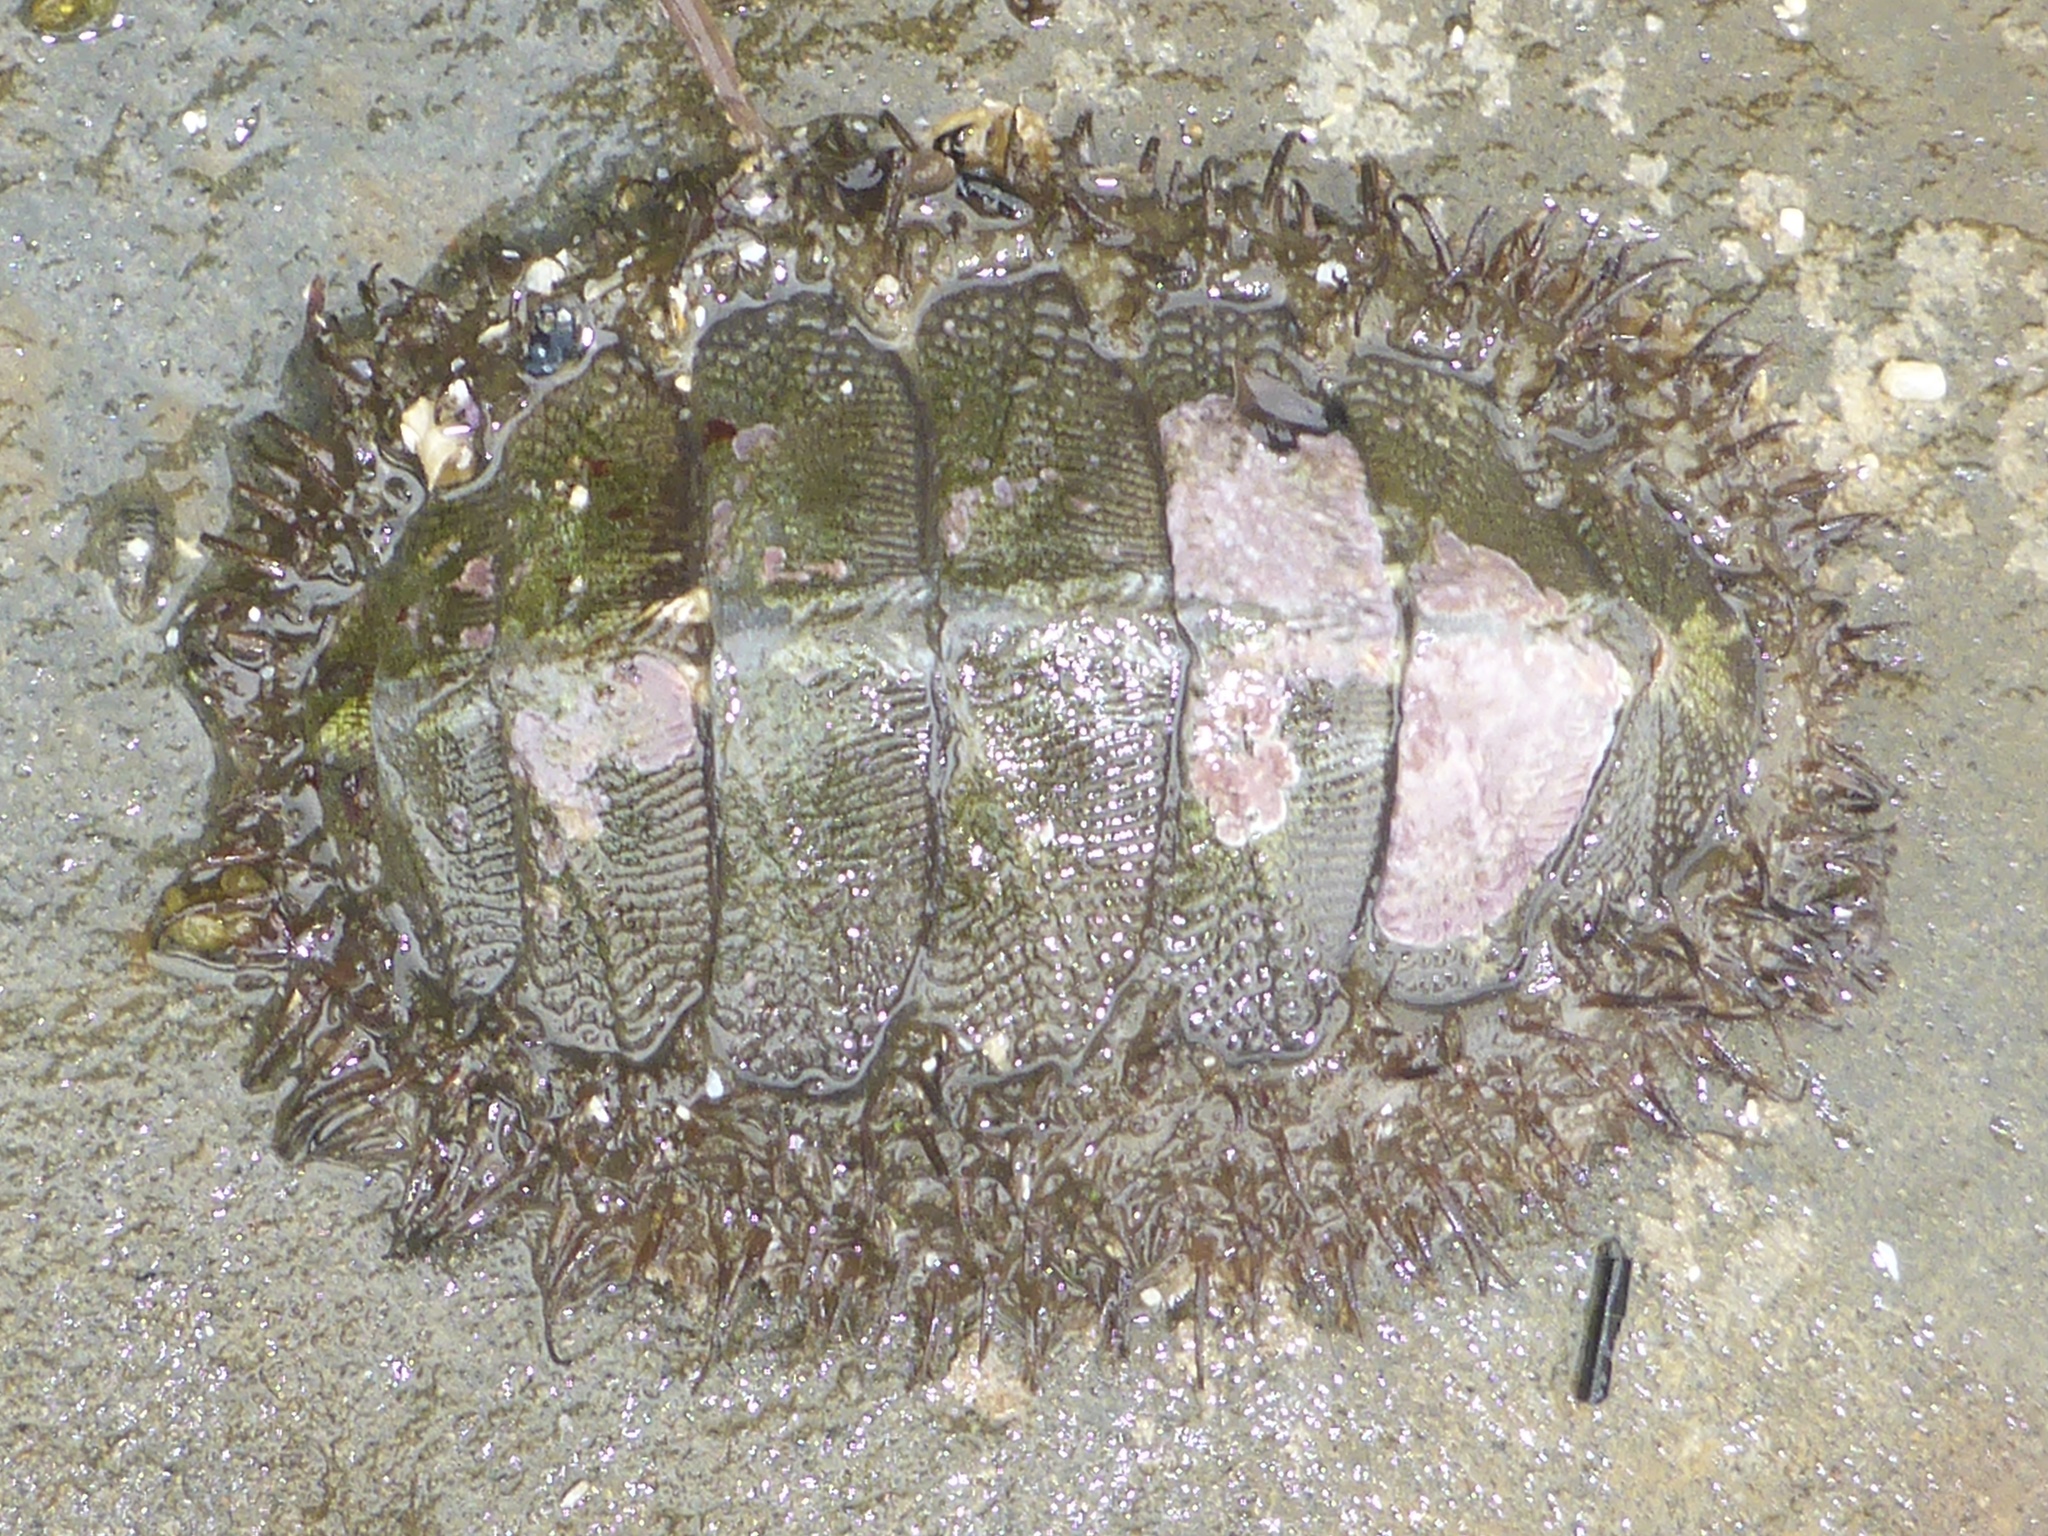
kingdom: Animalia
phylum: Mollusca
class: Polyplacophora
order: Chitonida
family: Mopaliidae
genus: Mopalia
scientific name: Mopalia muscosa
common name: Mossy chiton
